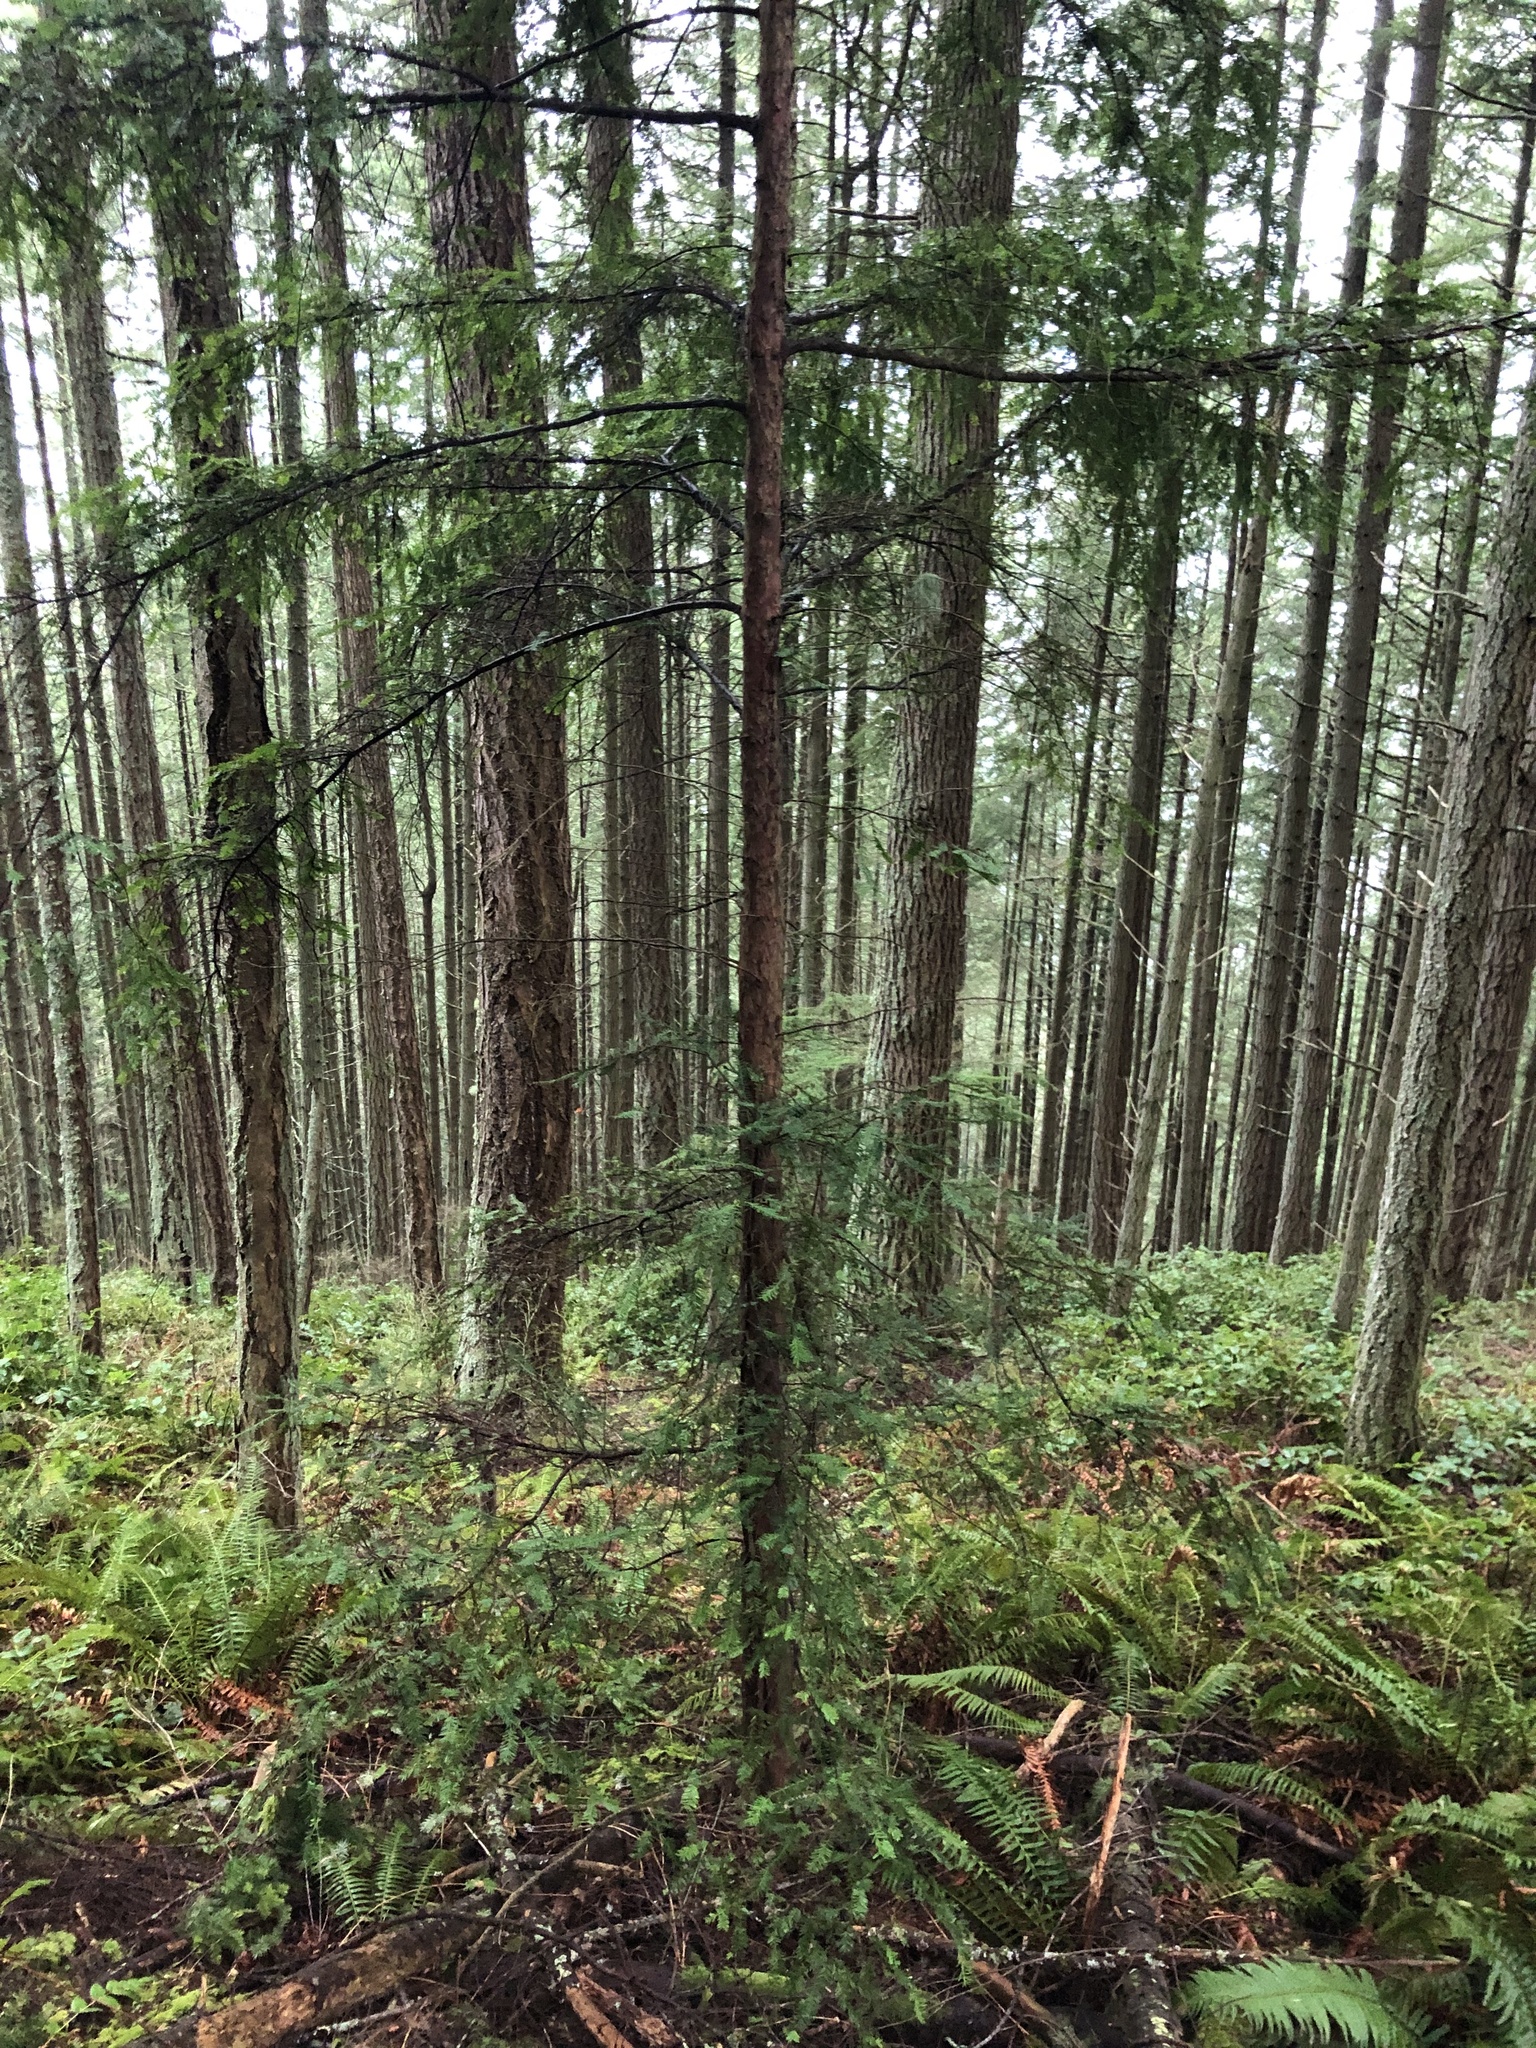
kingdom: Plantae
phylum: Tracheophyta
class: Pinopsida
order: Pinales
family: Pinaceae
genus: Tsuga
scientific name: Tsuga heterophylla
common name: Western hemlock
